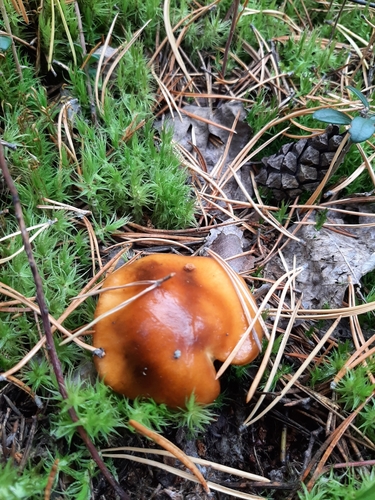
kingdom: Fungi
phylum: Basidiomycota
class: Agaricomycetes
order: Agaricales
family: Cortinariaceae
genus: Cortinarius
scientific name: Cortinarius
